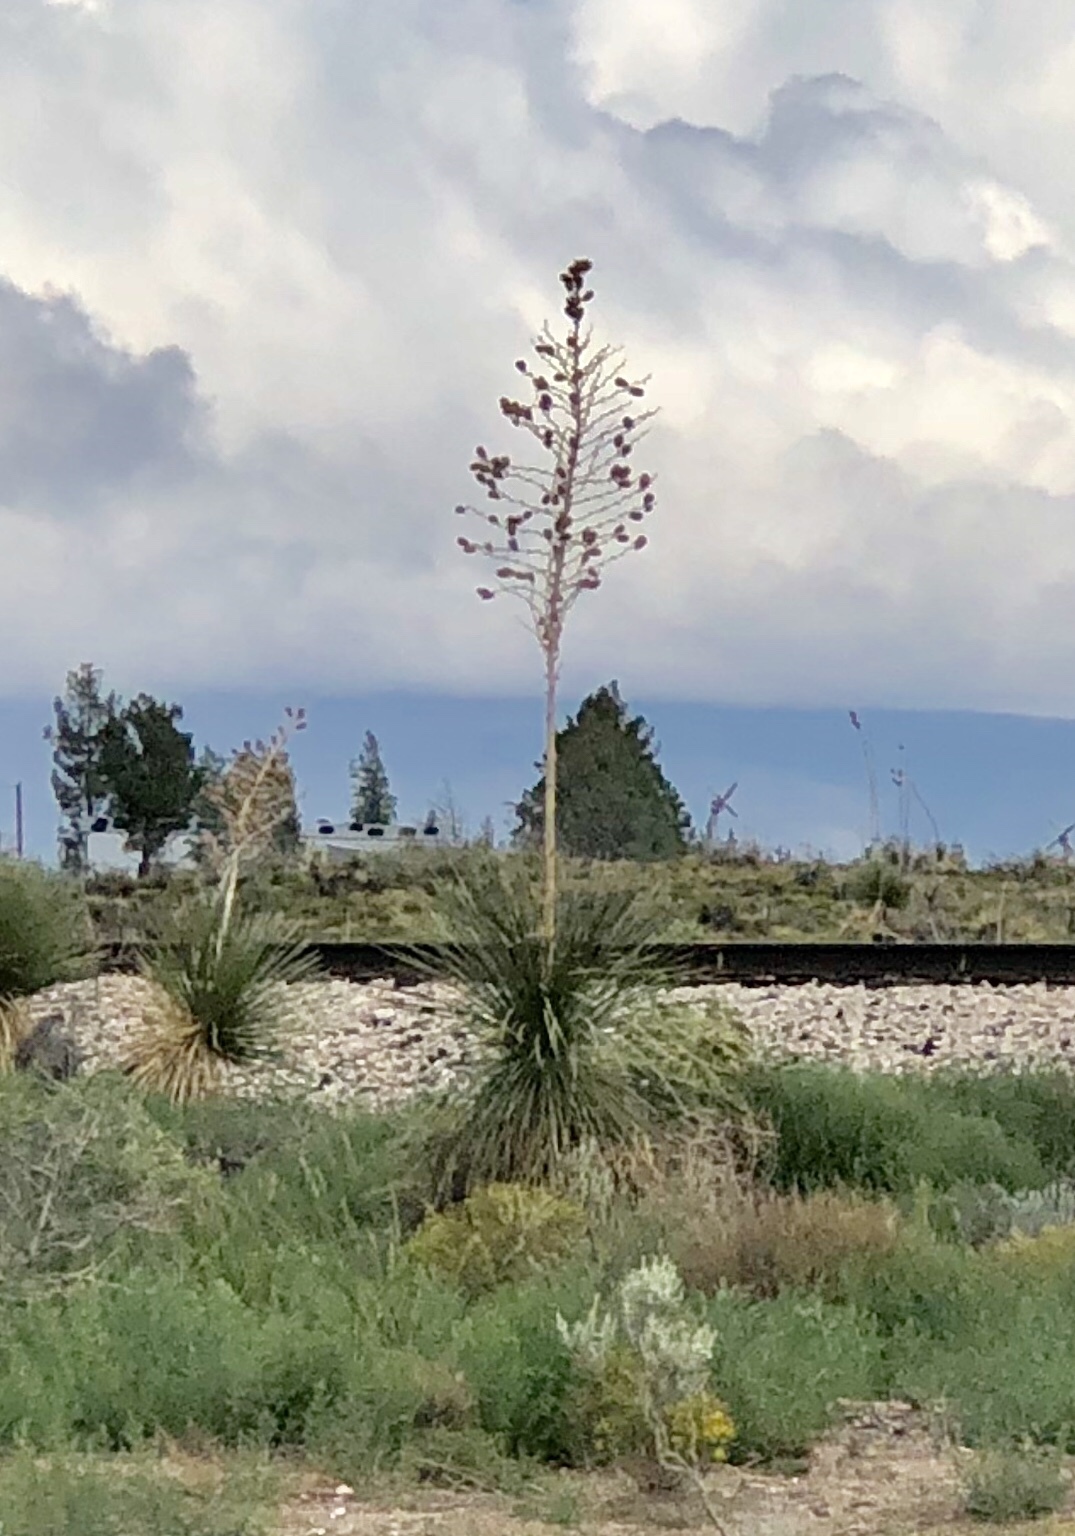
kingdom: Plantae
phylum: Tracheophyta
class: Liliopsida
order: Asparagales
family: Asparagaceae
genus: Yucca
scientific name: Yucca elata
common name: Palmella
